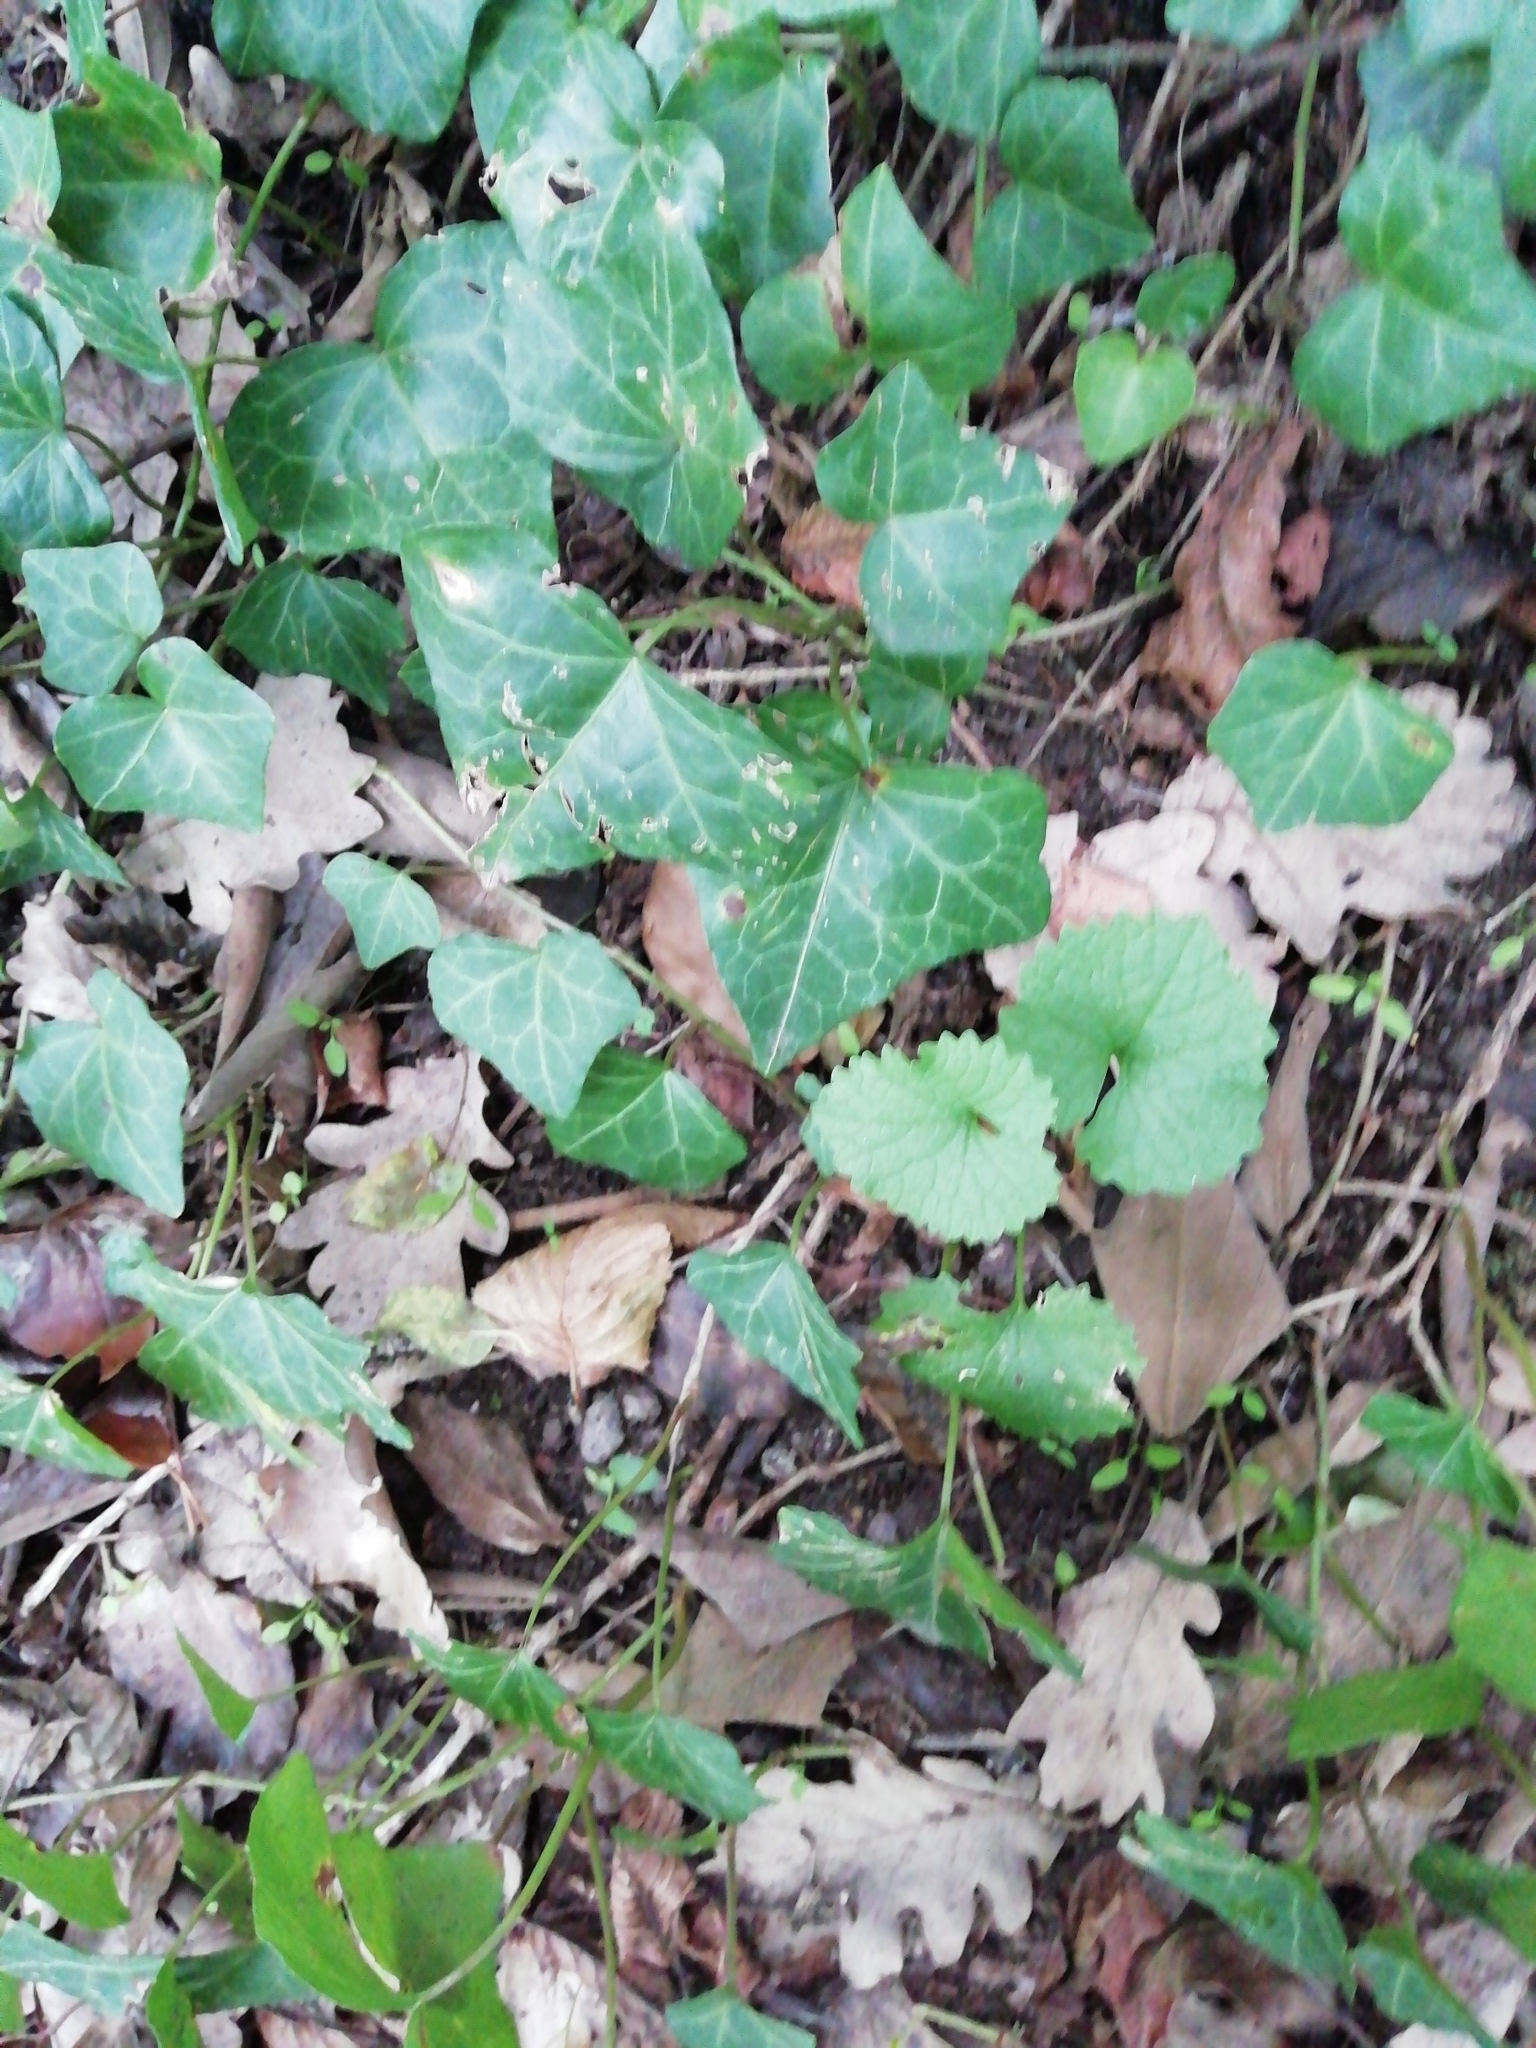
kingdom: Plantae
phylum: Tracheophyta
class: Magnoliopsida
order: Apiales
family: Araliaceae
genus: Hedera
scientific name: Hedera helix
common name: Ivy
